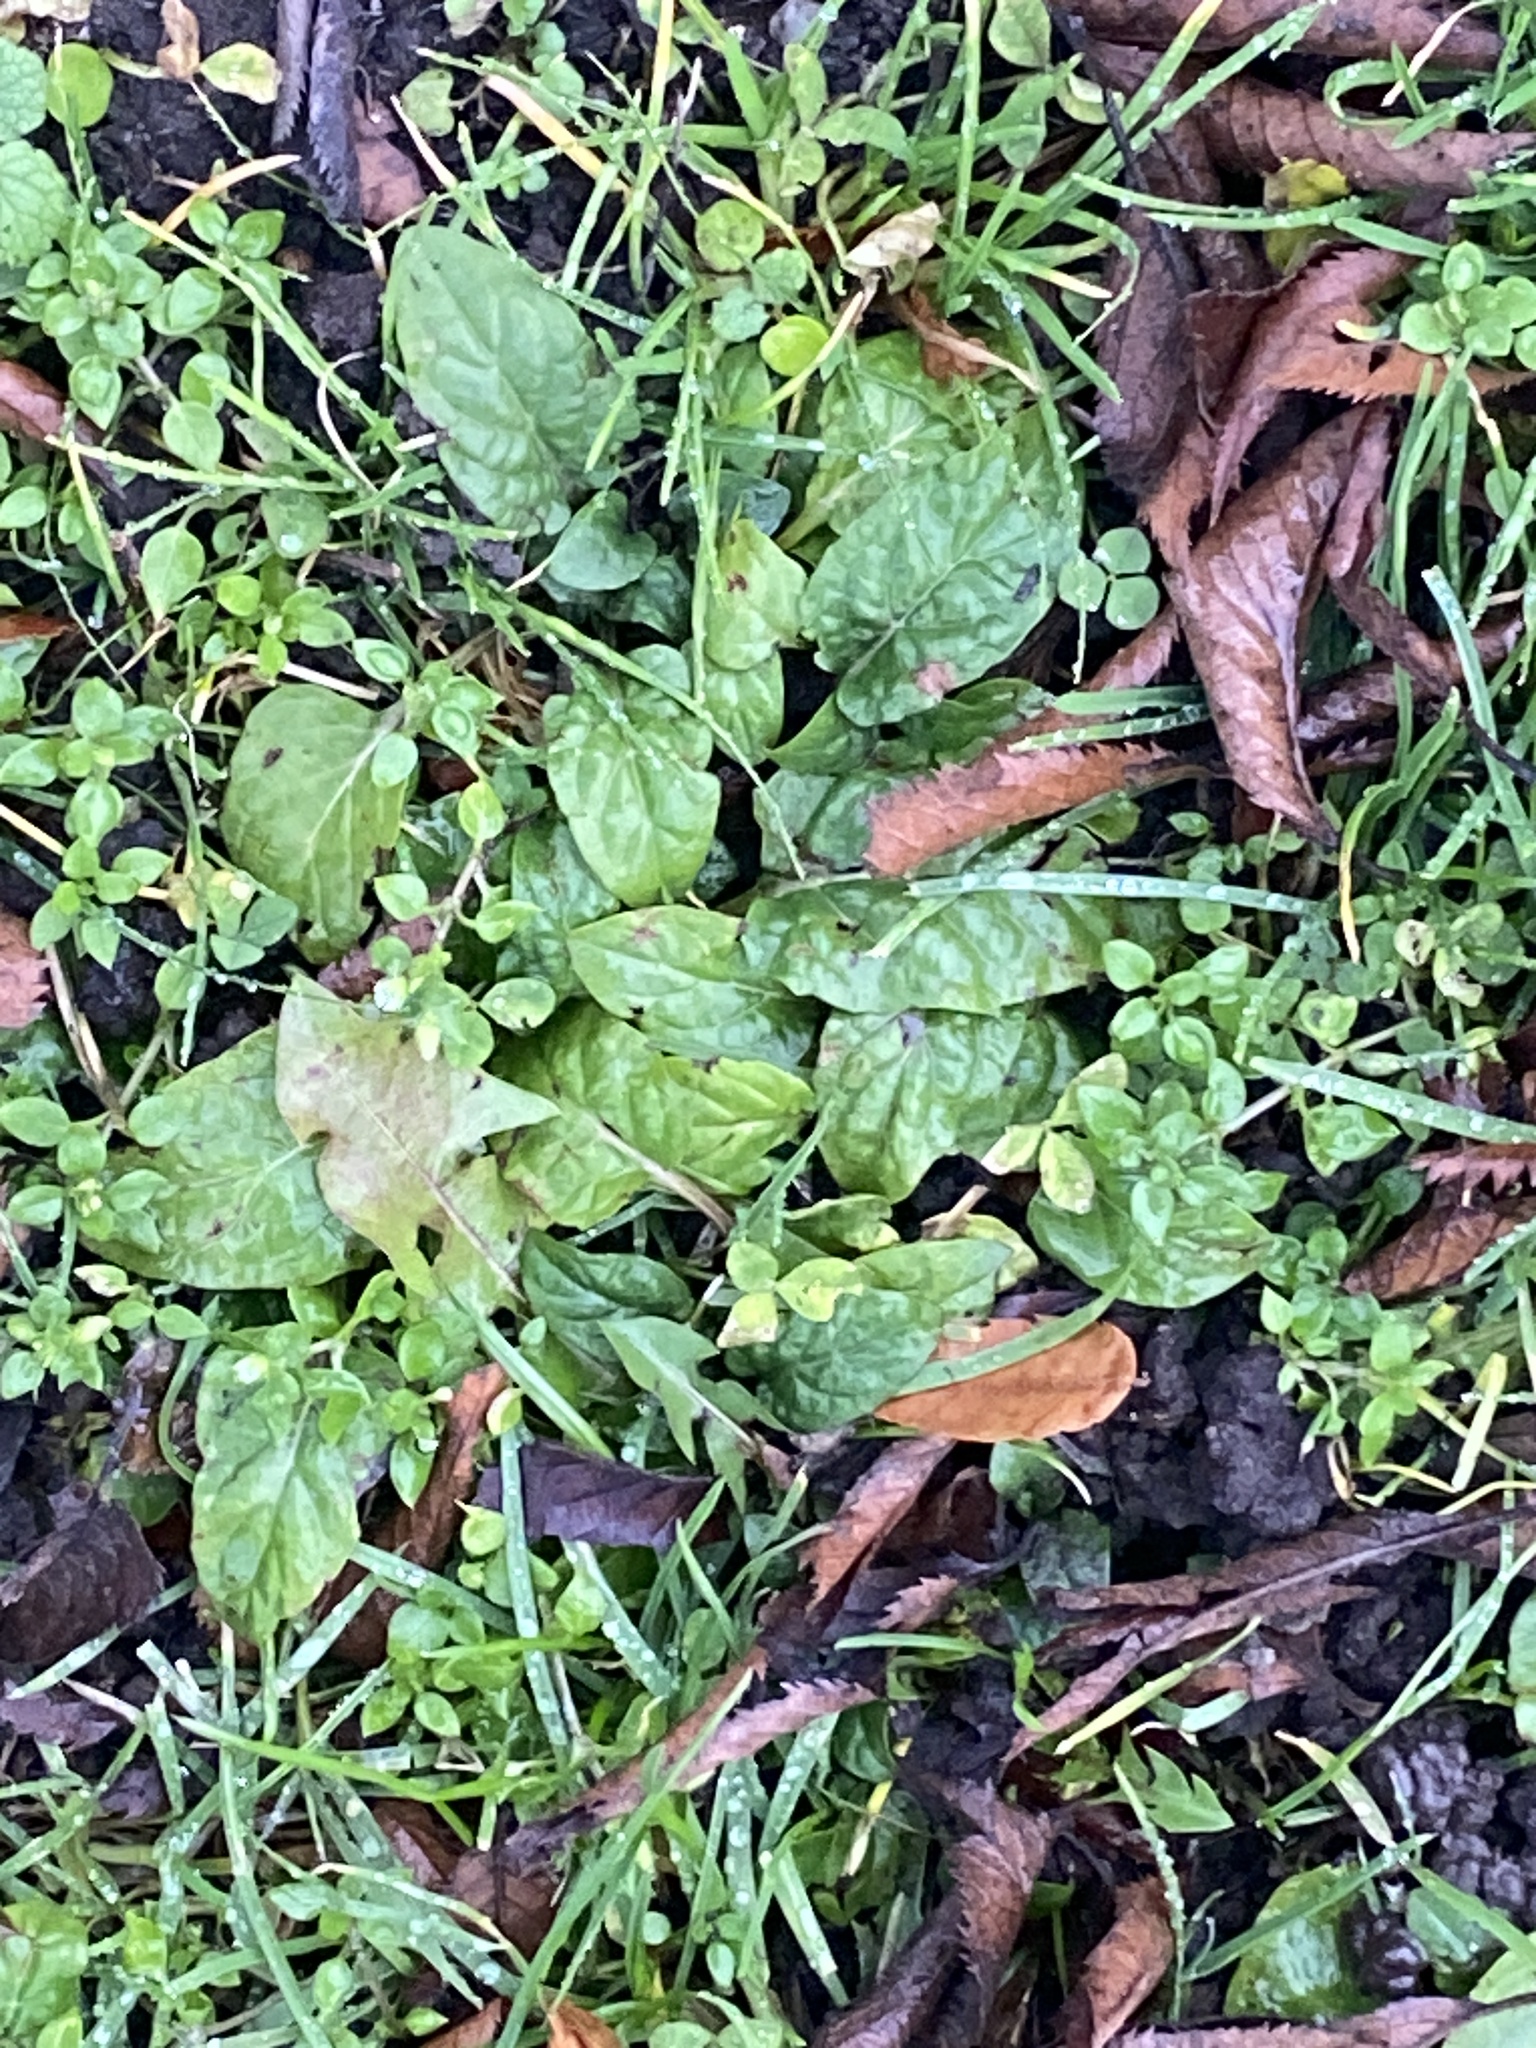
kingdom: Plantae
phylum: Tracheophyta
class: Magnoliopsida
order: Lamiales
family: Lamiaceae
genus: Prunella
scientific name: Prunella vulgaris
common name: Heal-all
